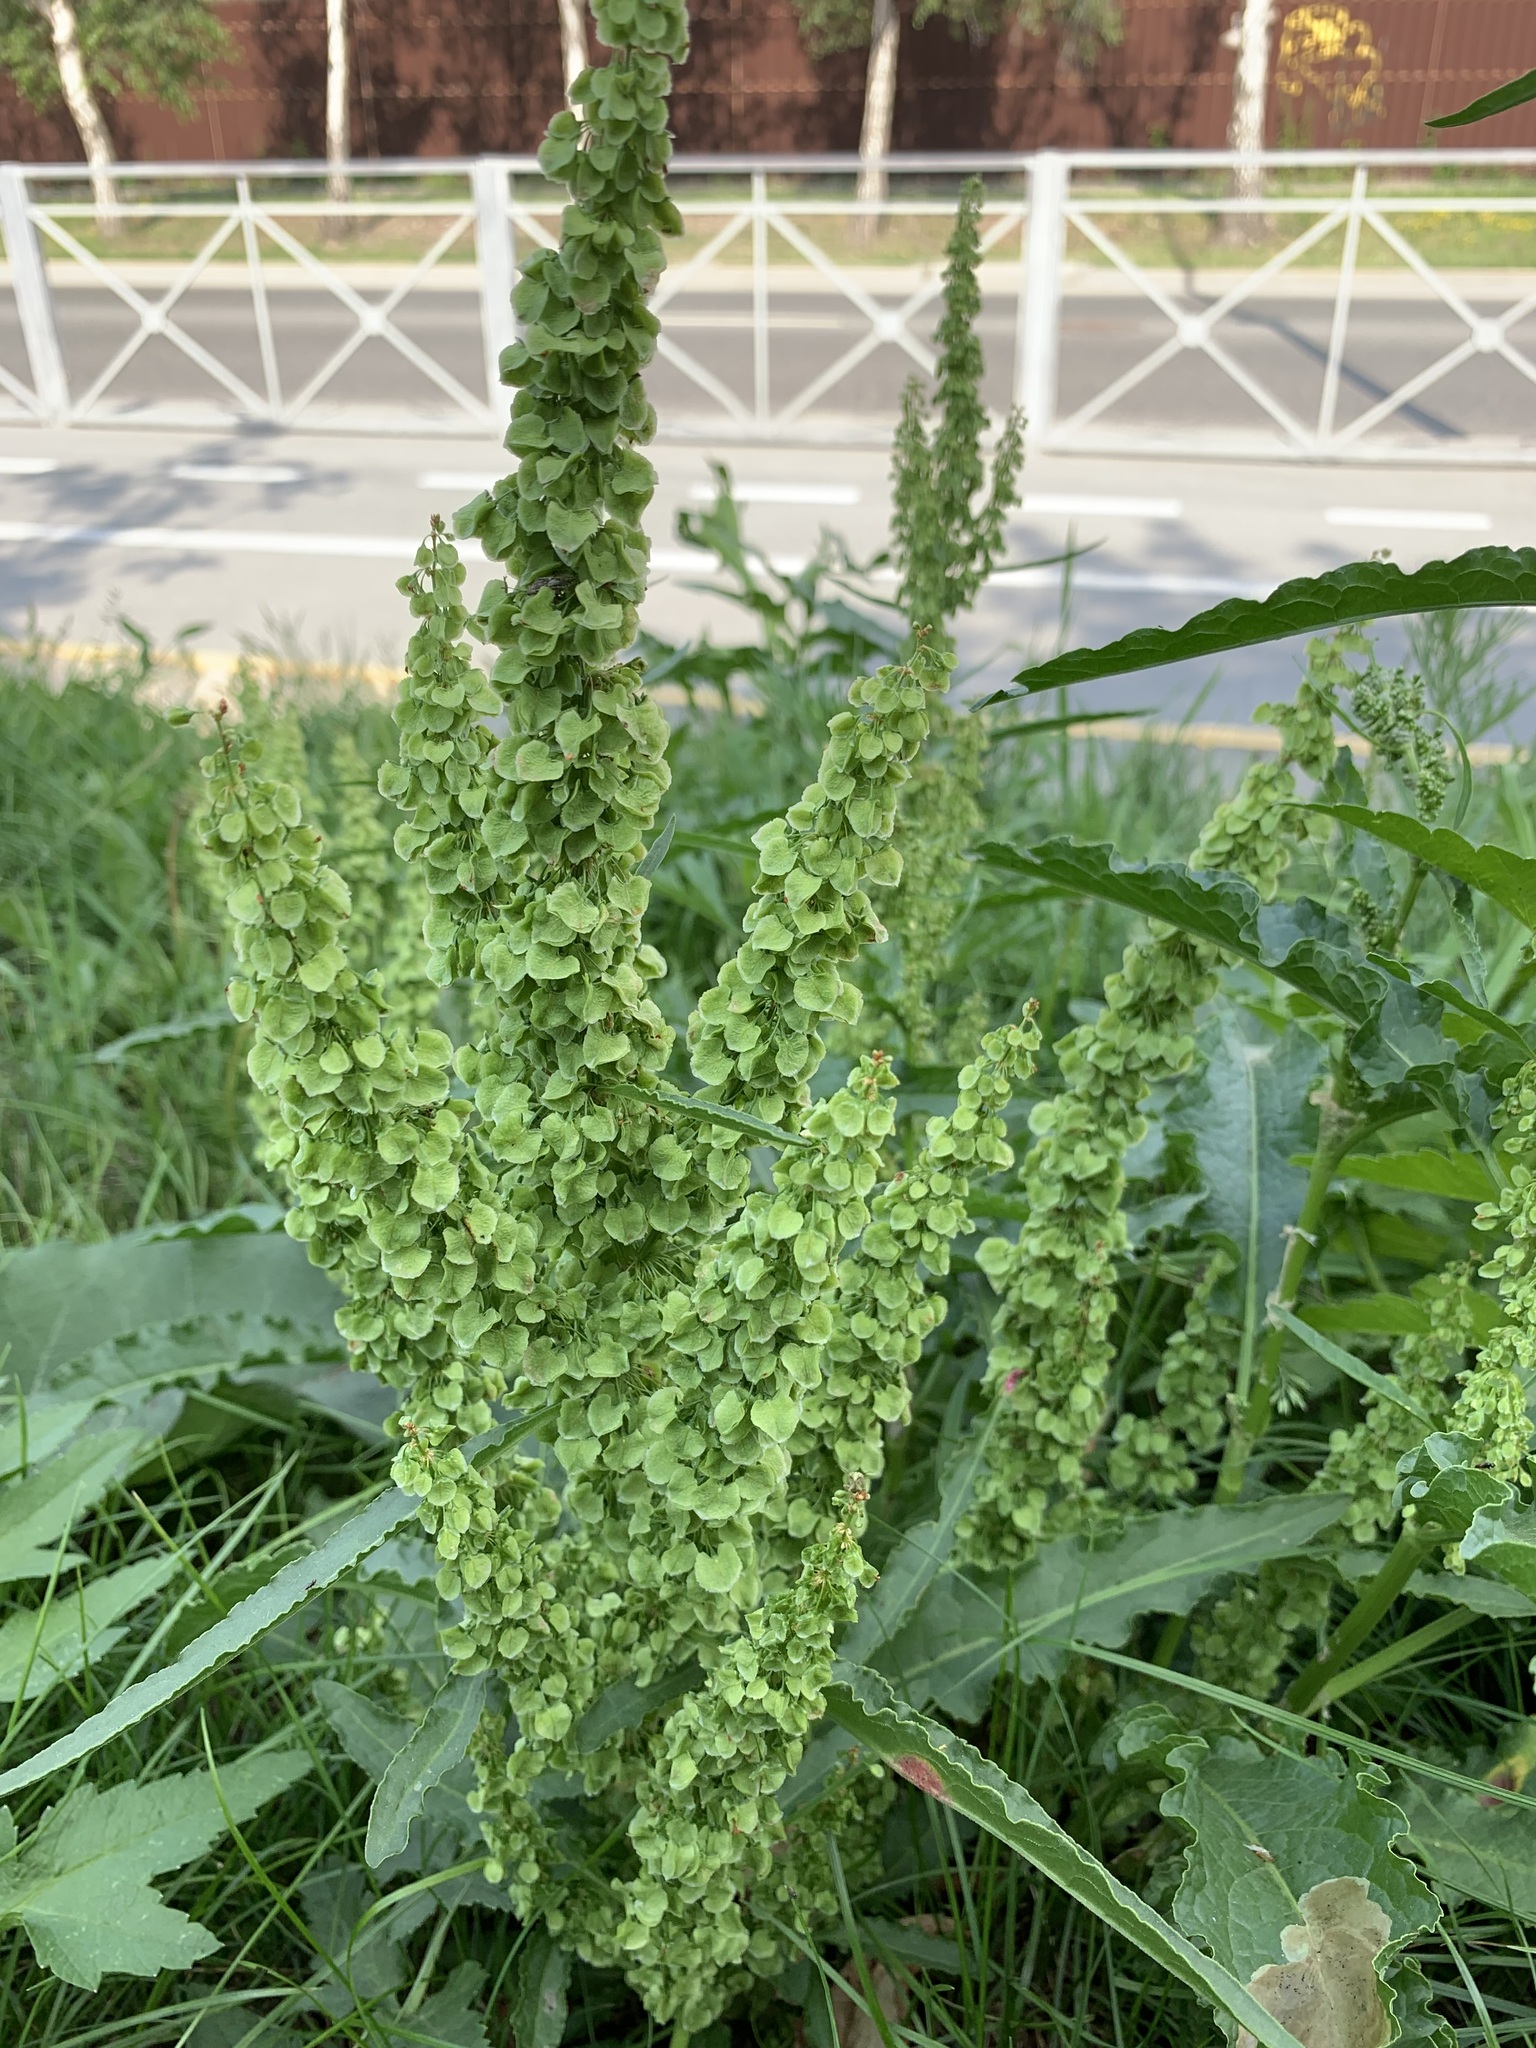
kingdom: Plantae
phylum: Tracheophyta
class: Magnoliopsida
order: Caryophyllales
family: Polygonaceae
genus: Rumex
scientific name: Rumex longifolius
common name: Dooryard dock
